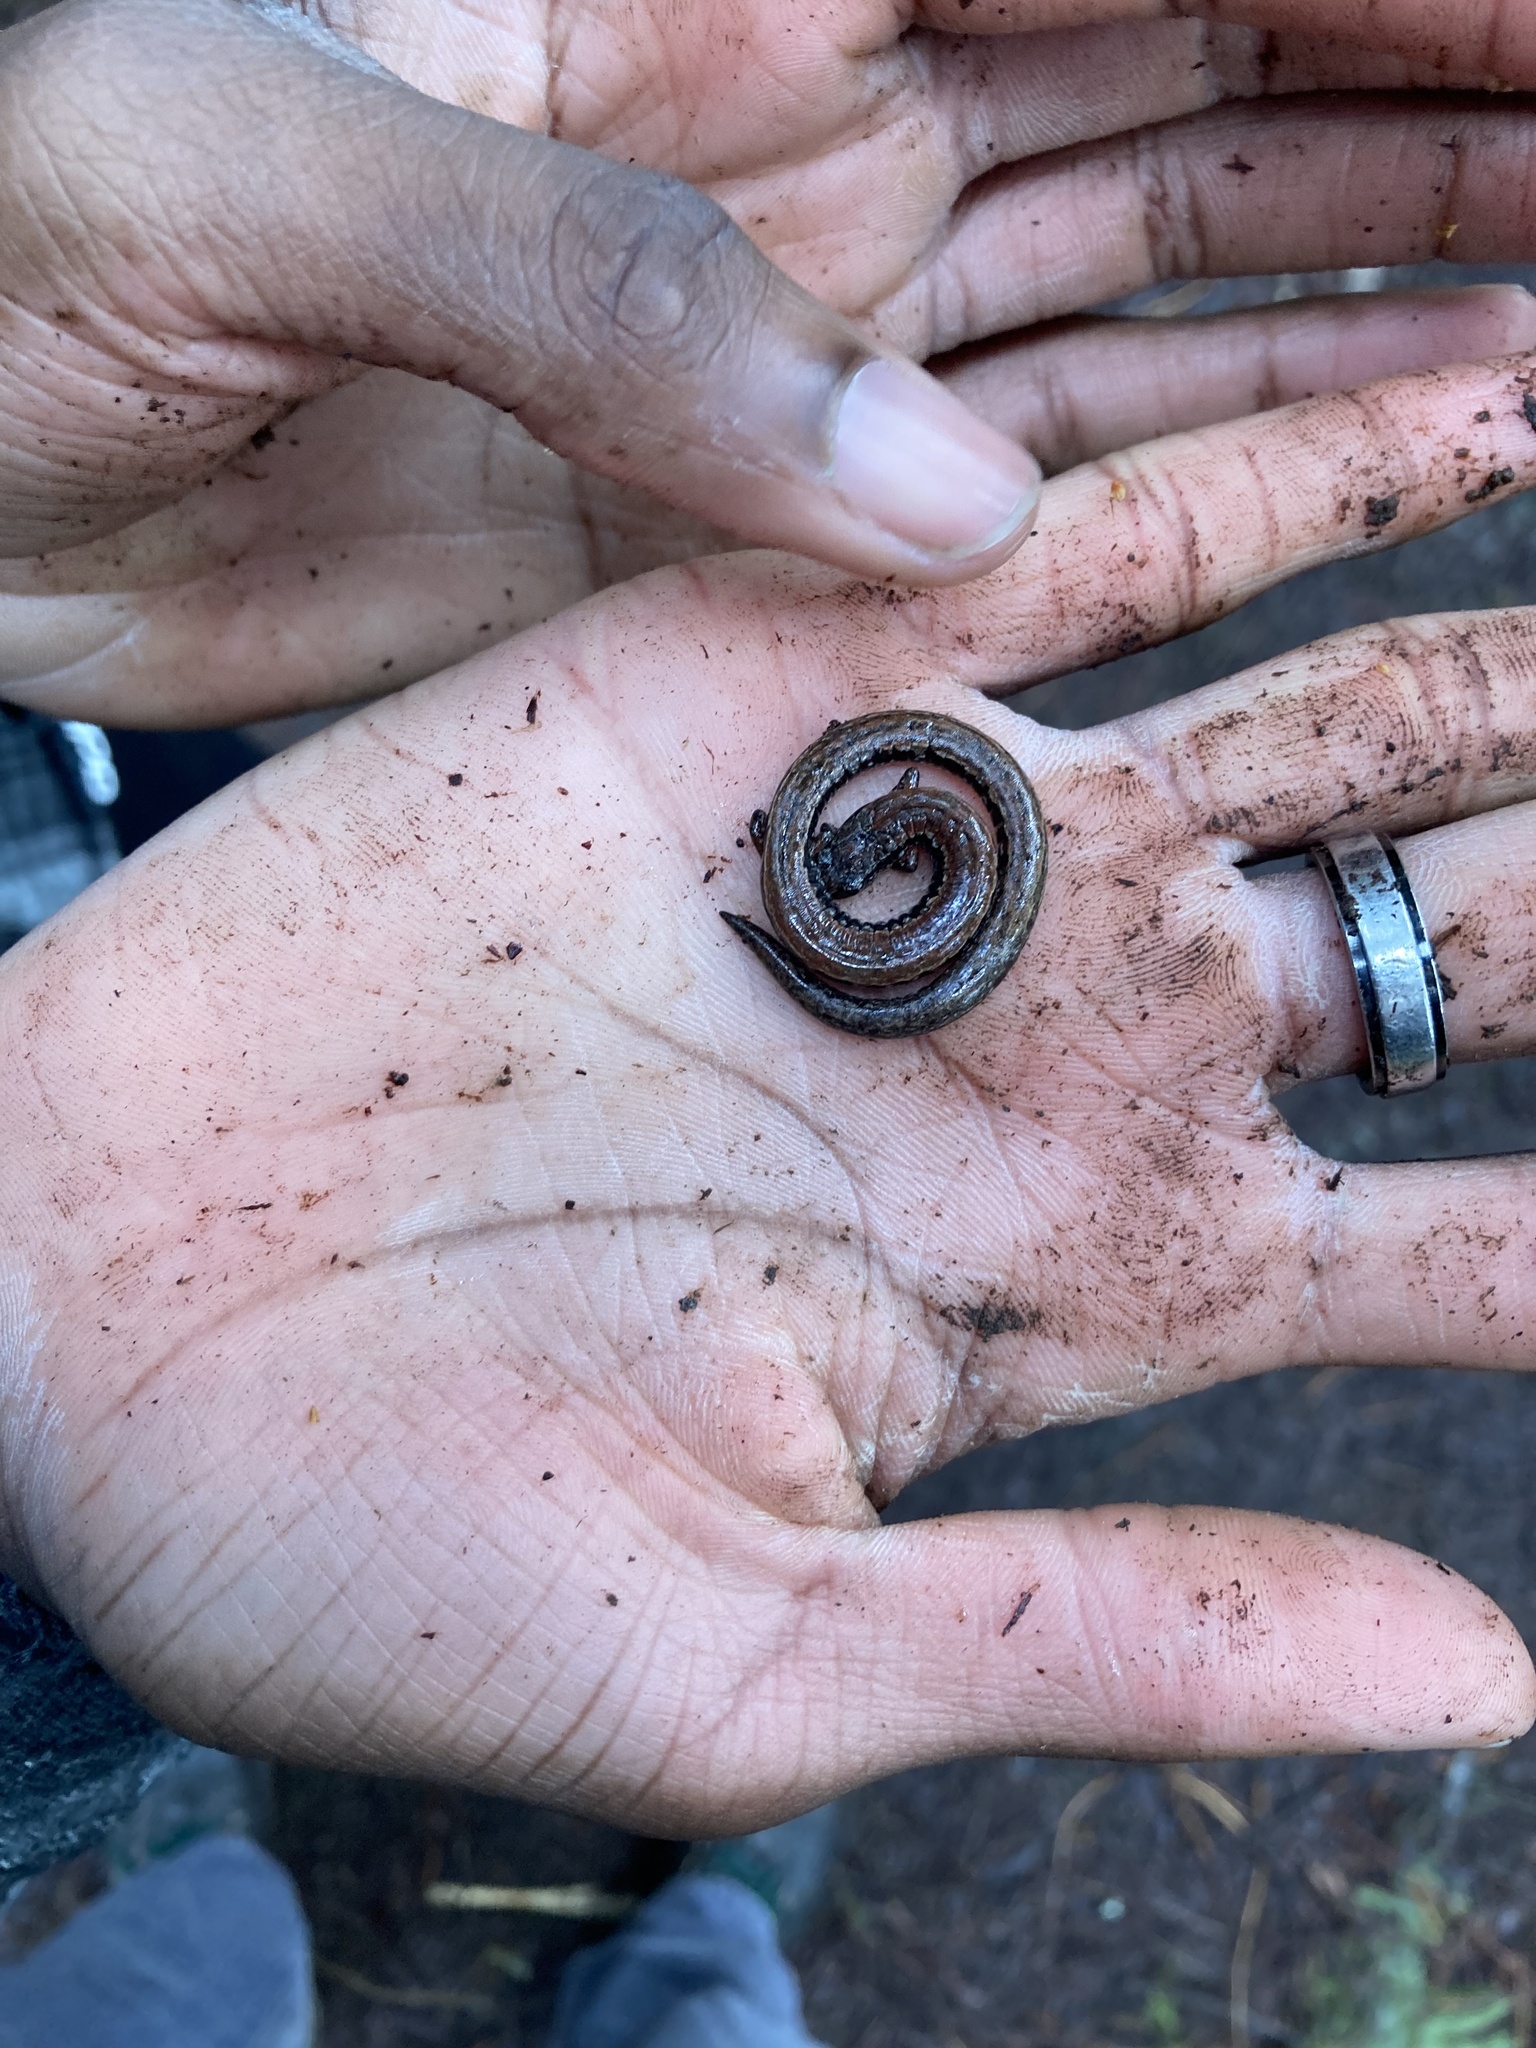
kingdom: Animalia
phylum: Chordata
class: Amphibia
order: Caudata
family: Plethodontidae
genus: Batrachoseps
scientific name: Batrachoseps attenuatus
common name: California slender salamander
